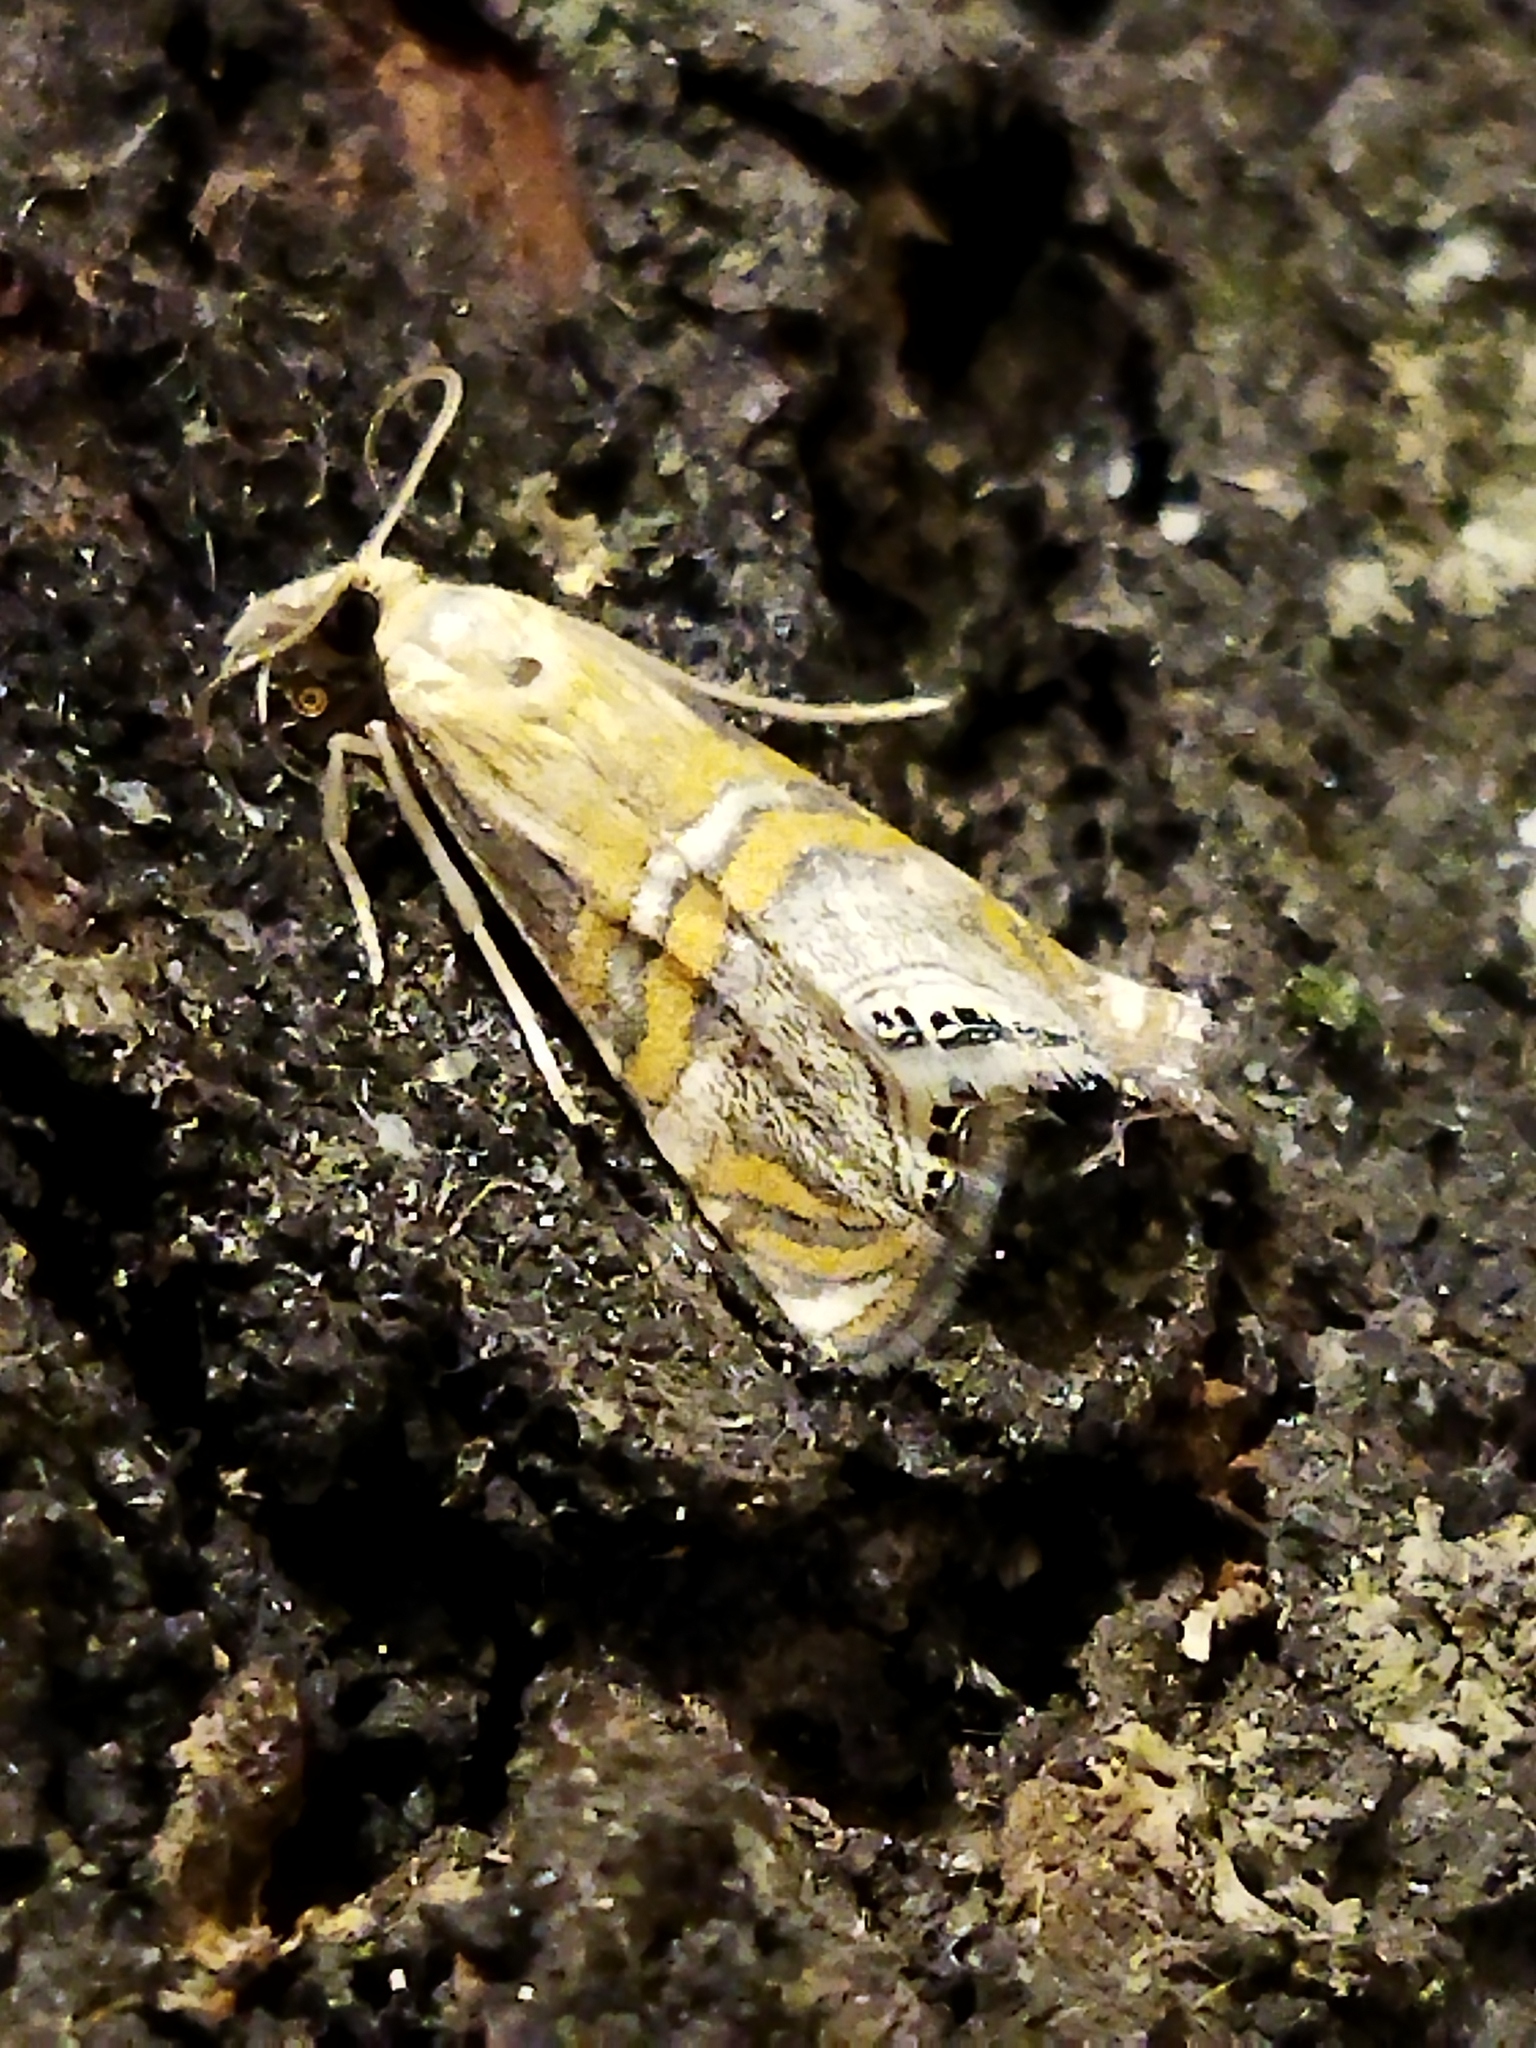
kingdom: Animalia
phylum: Arthropoda
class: Insecta
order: Lepidoptera
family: Crambidae
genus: Euchromius
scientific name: Euchromius bella
